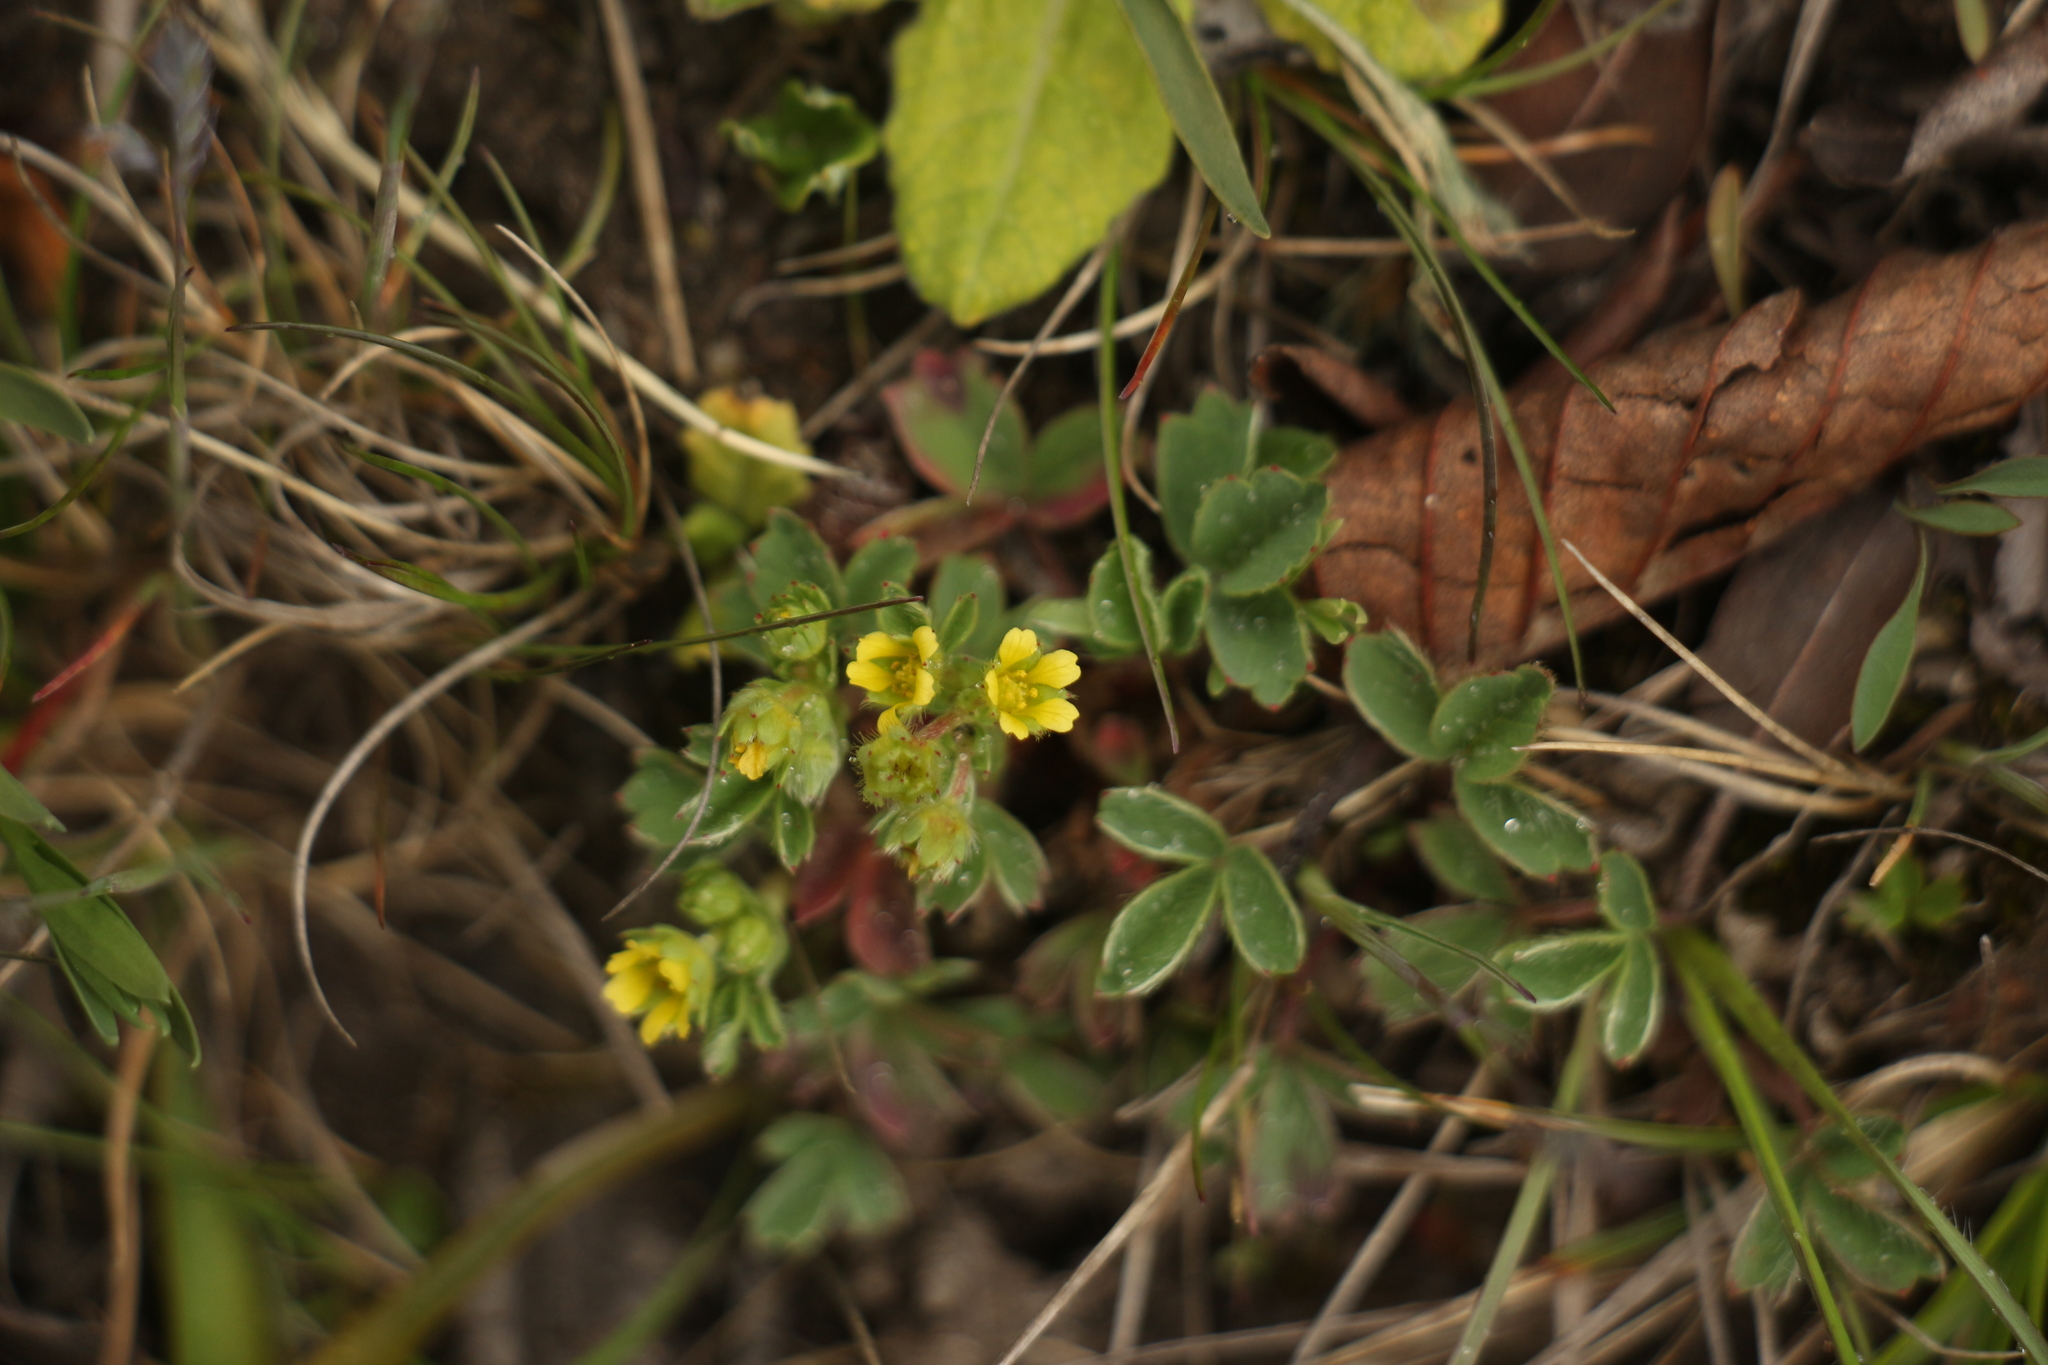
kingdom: Plantae
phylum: Tracheophyta
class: Magnoliopsida
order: Rosales
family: Rosaceae
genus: Sibbaldia
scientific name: Sibbaldia cuneata
